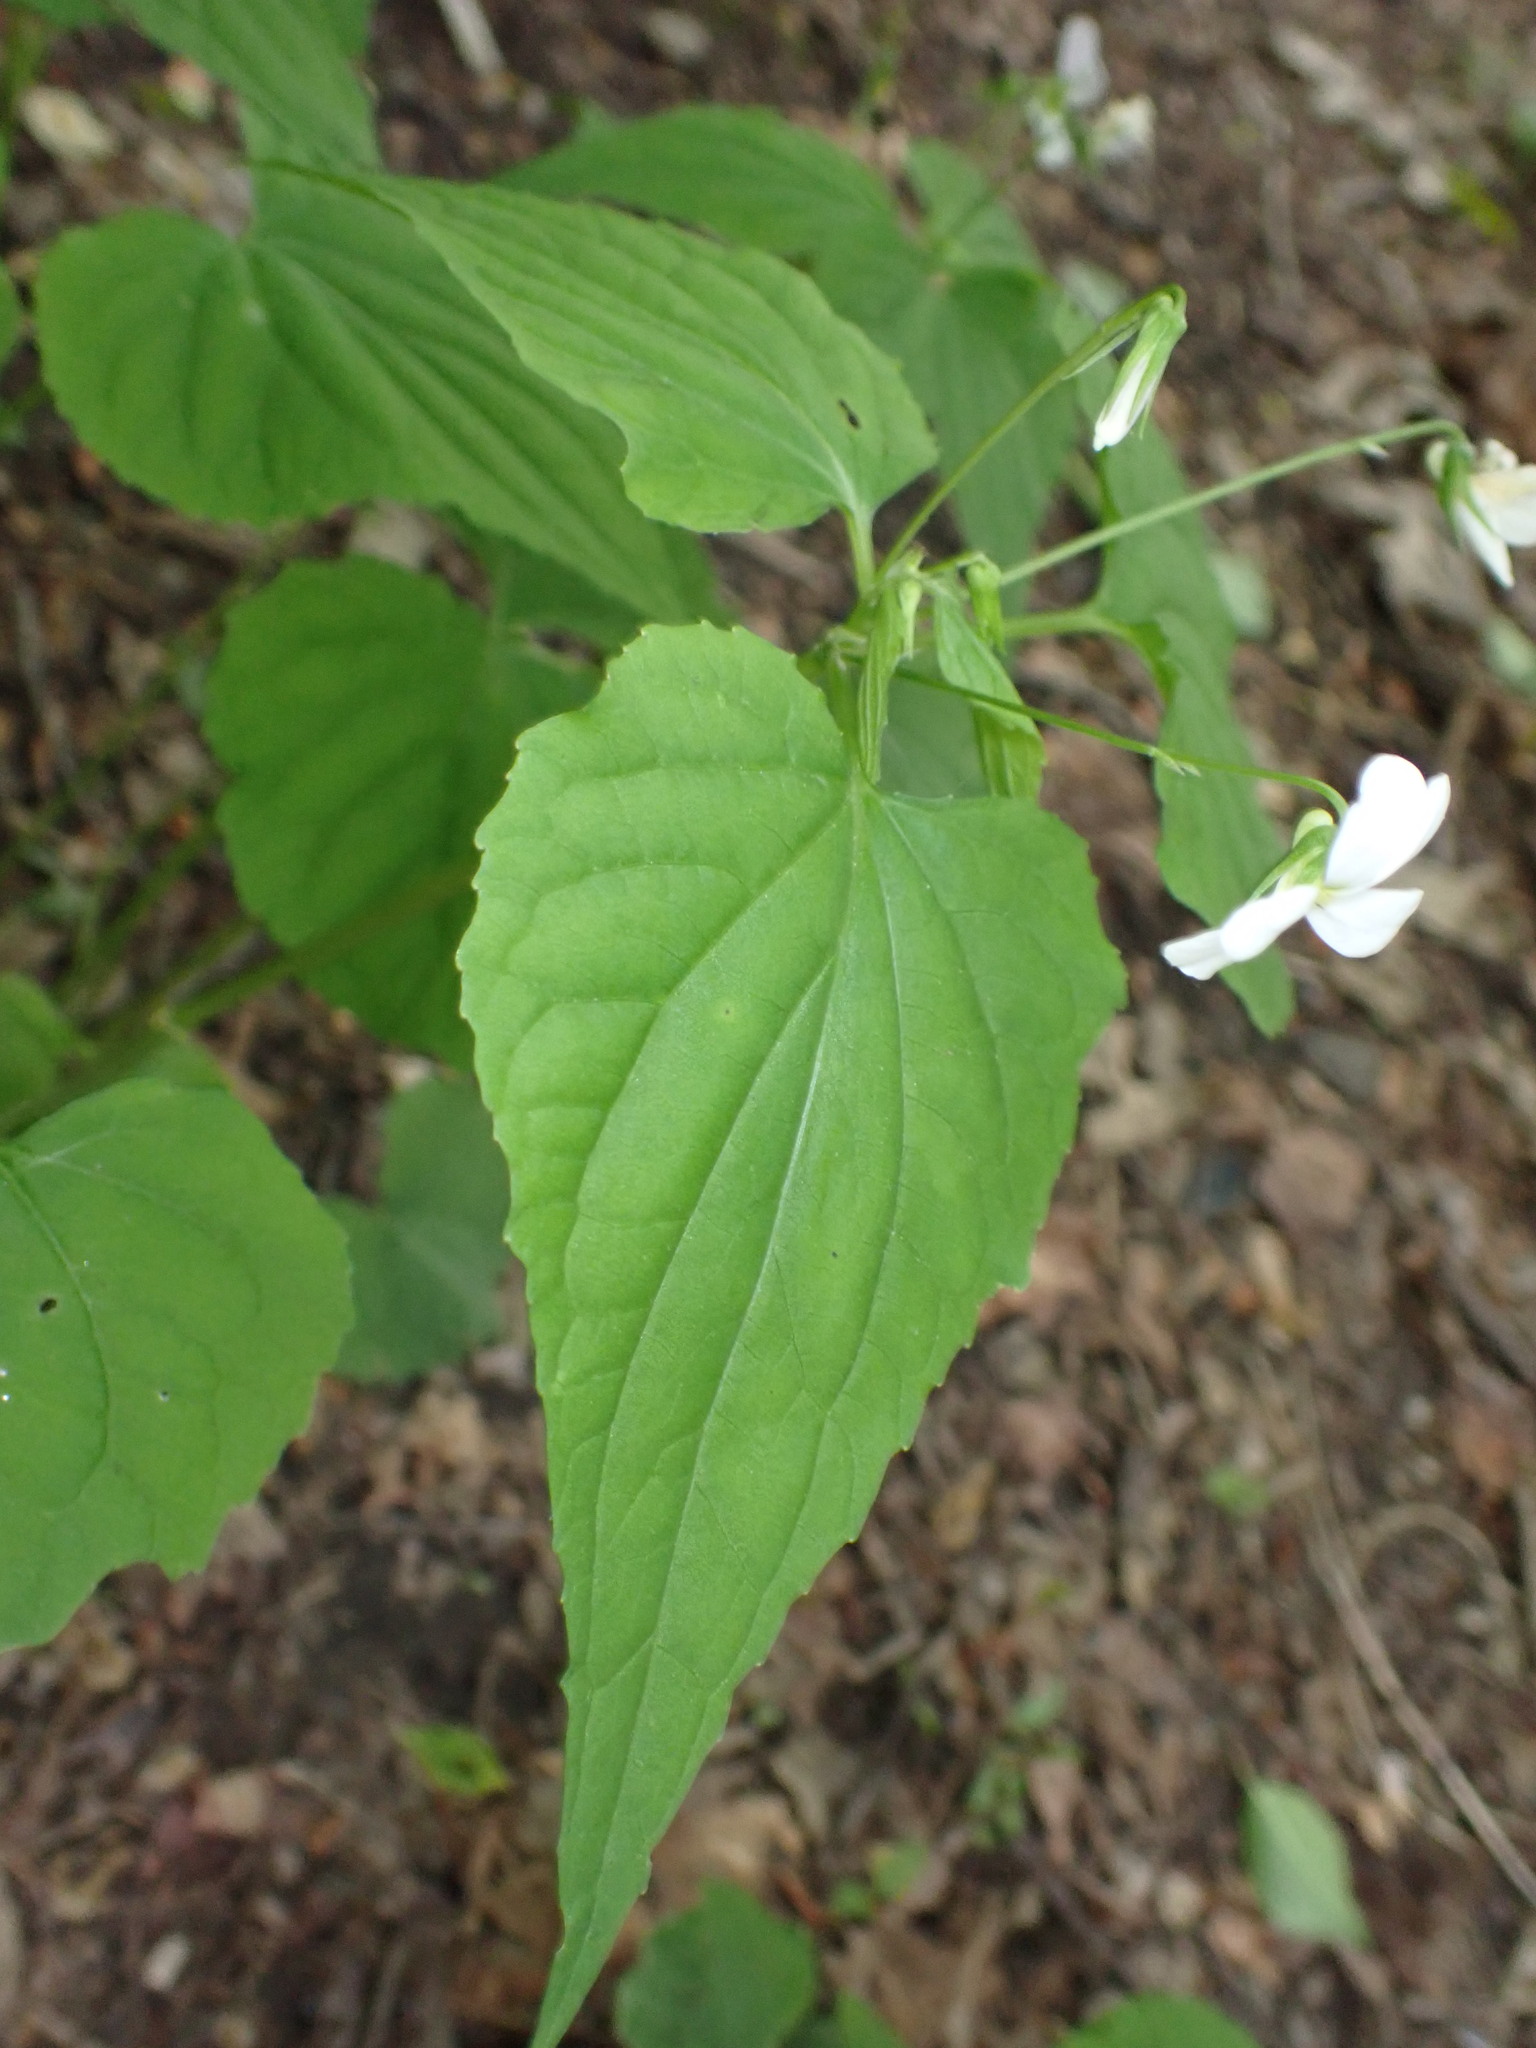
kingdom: Plantae
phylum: Tracheophyta
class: Magnoliopsida
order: Malpighiales
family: Violaceae
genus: Viola
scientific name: Viola canadensis
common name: Canada violet
